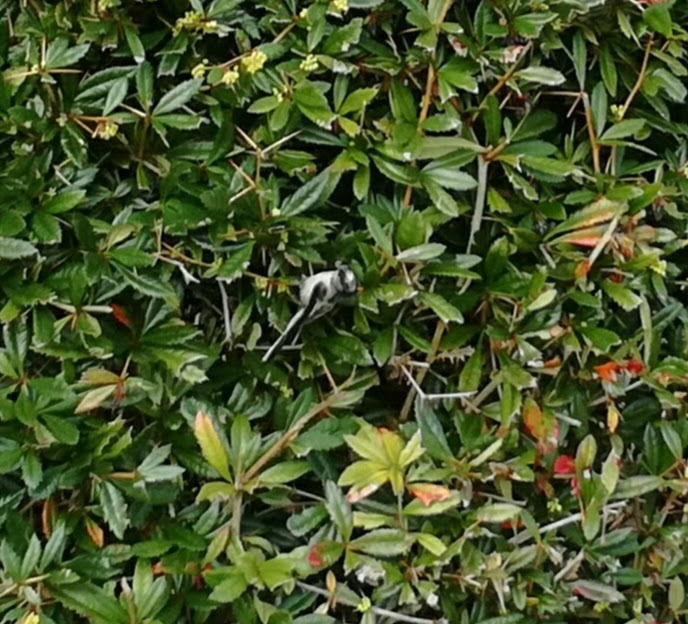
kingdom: Animalia
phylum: Chordata
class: Aves
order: Passeriformes
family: Aegithalidae
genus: Aegithalos
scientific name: Aegithalos caudatus
